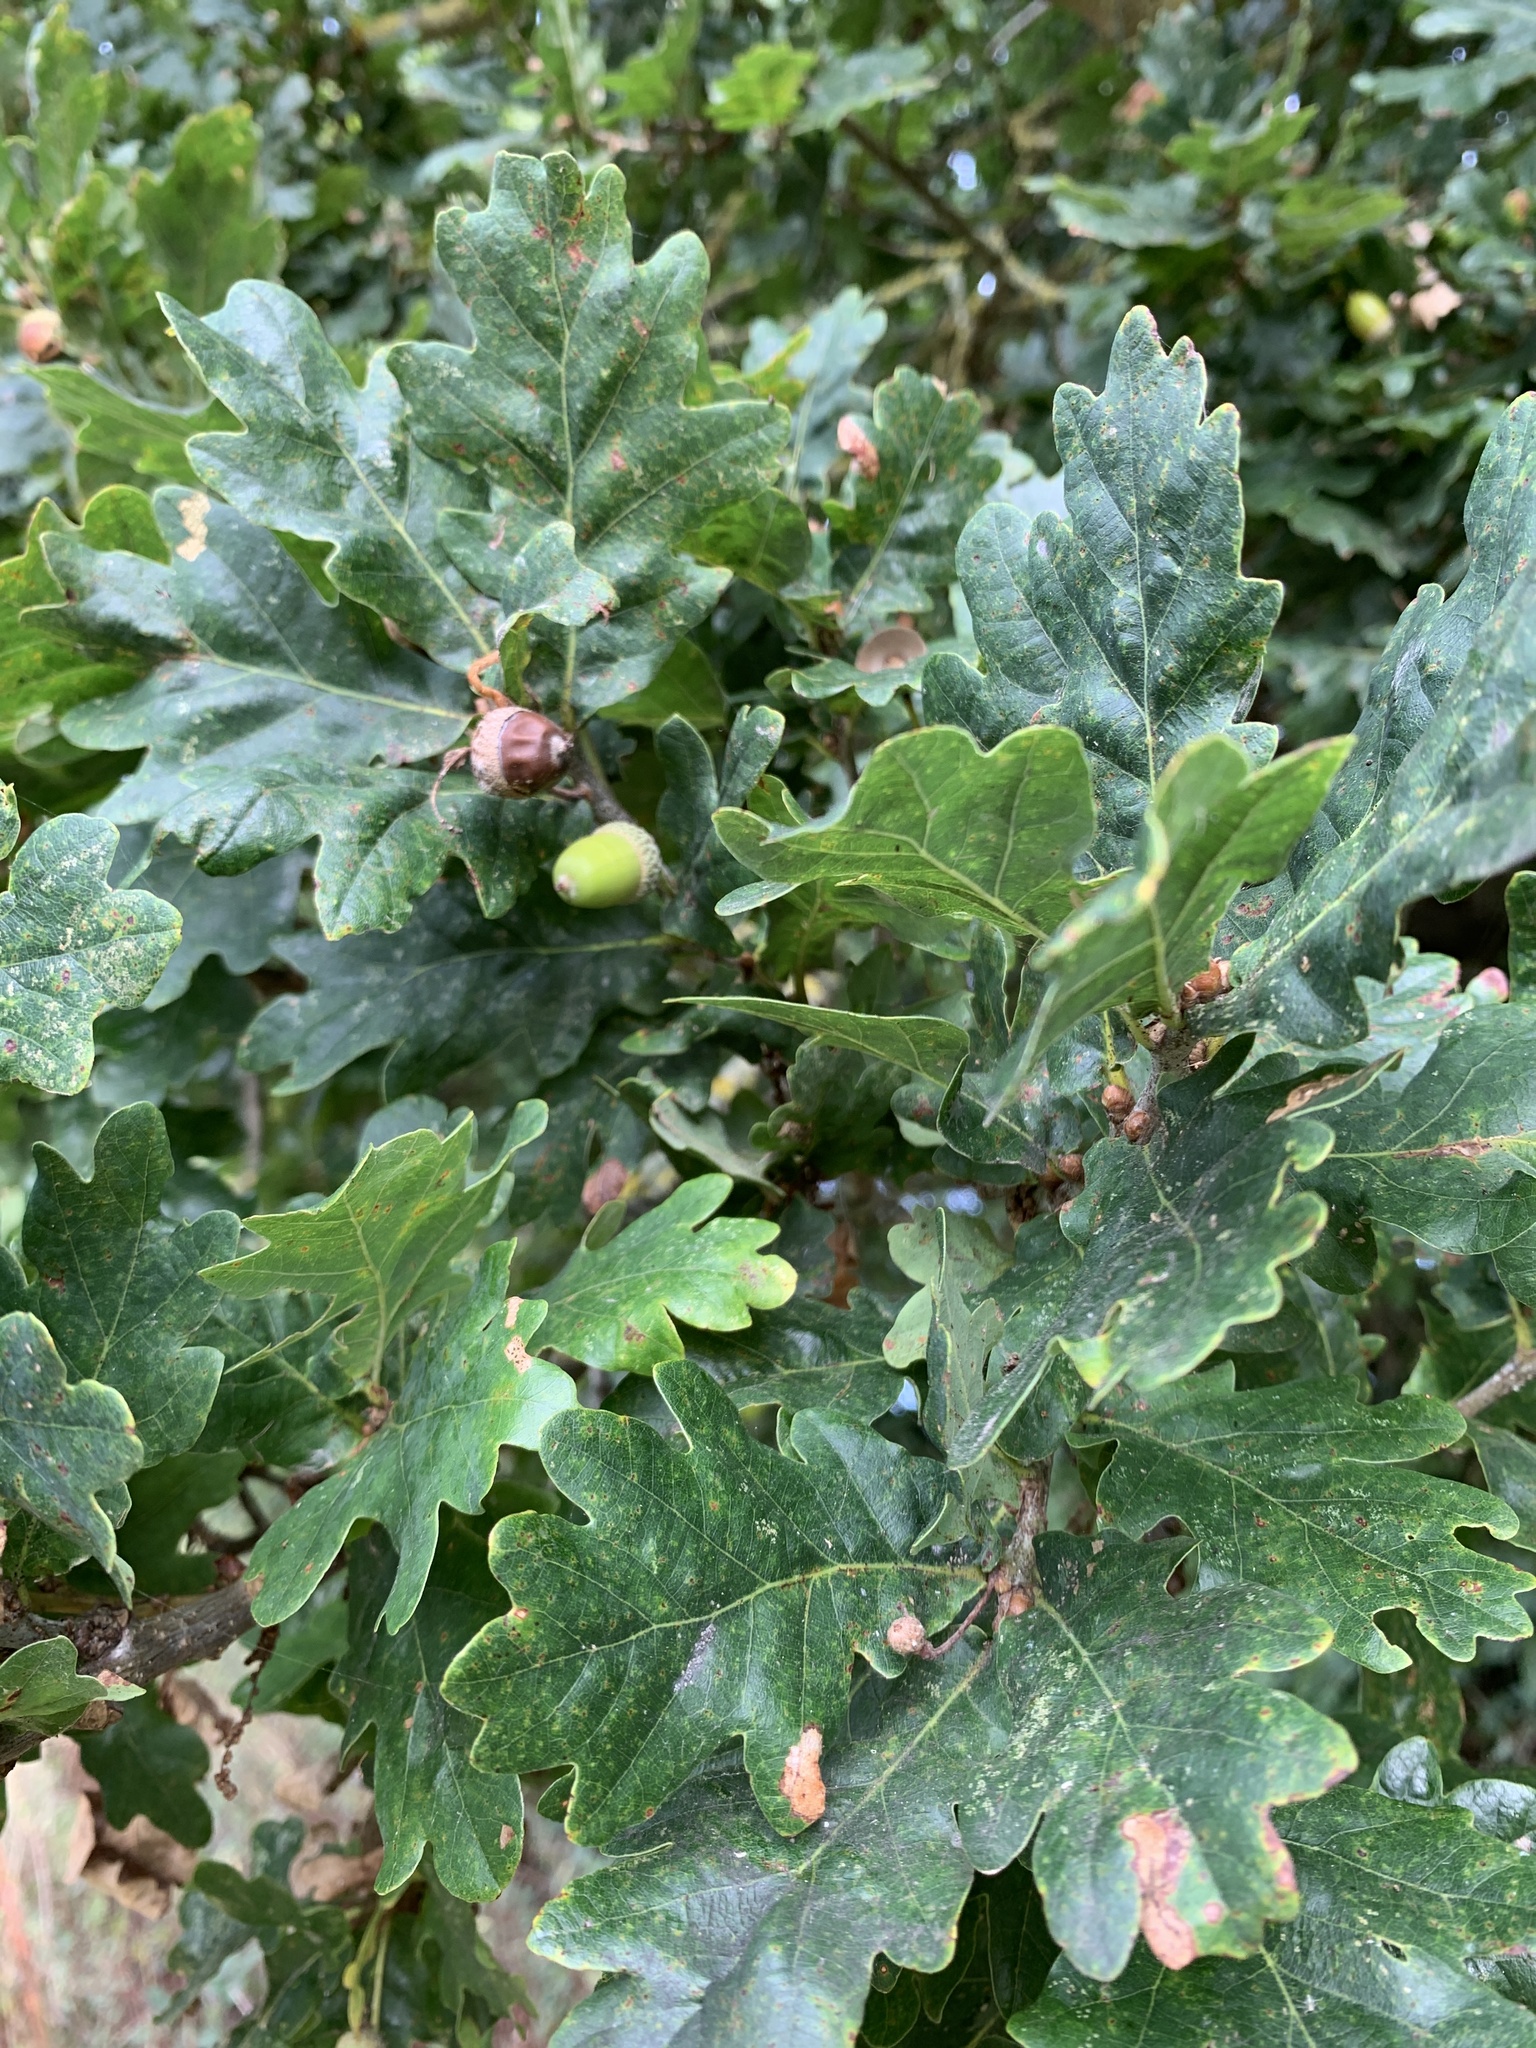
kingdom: Plantae
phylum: Tracheophyta
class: Magnoliopsida
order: Fagales
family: Fagaceae
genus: Quercus
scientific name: Quercus robur
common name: Pedunculate oak
